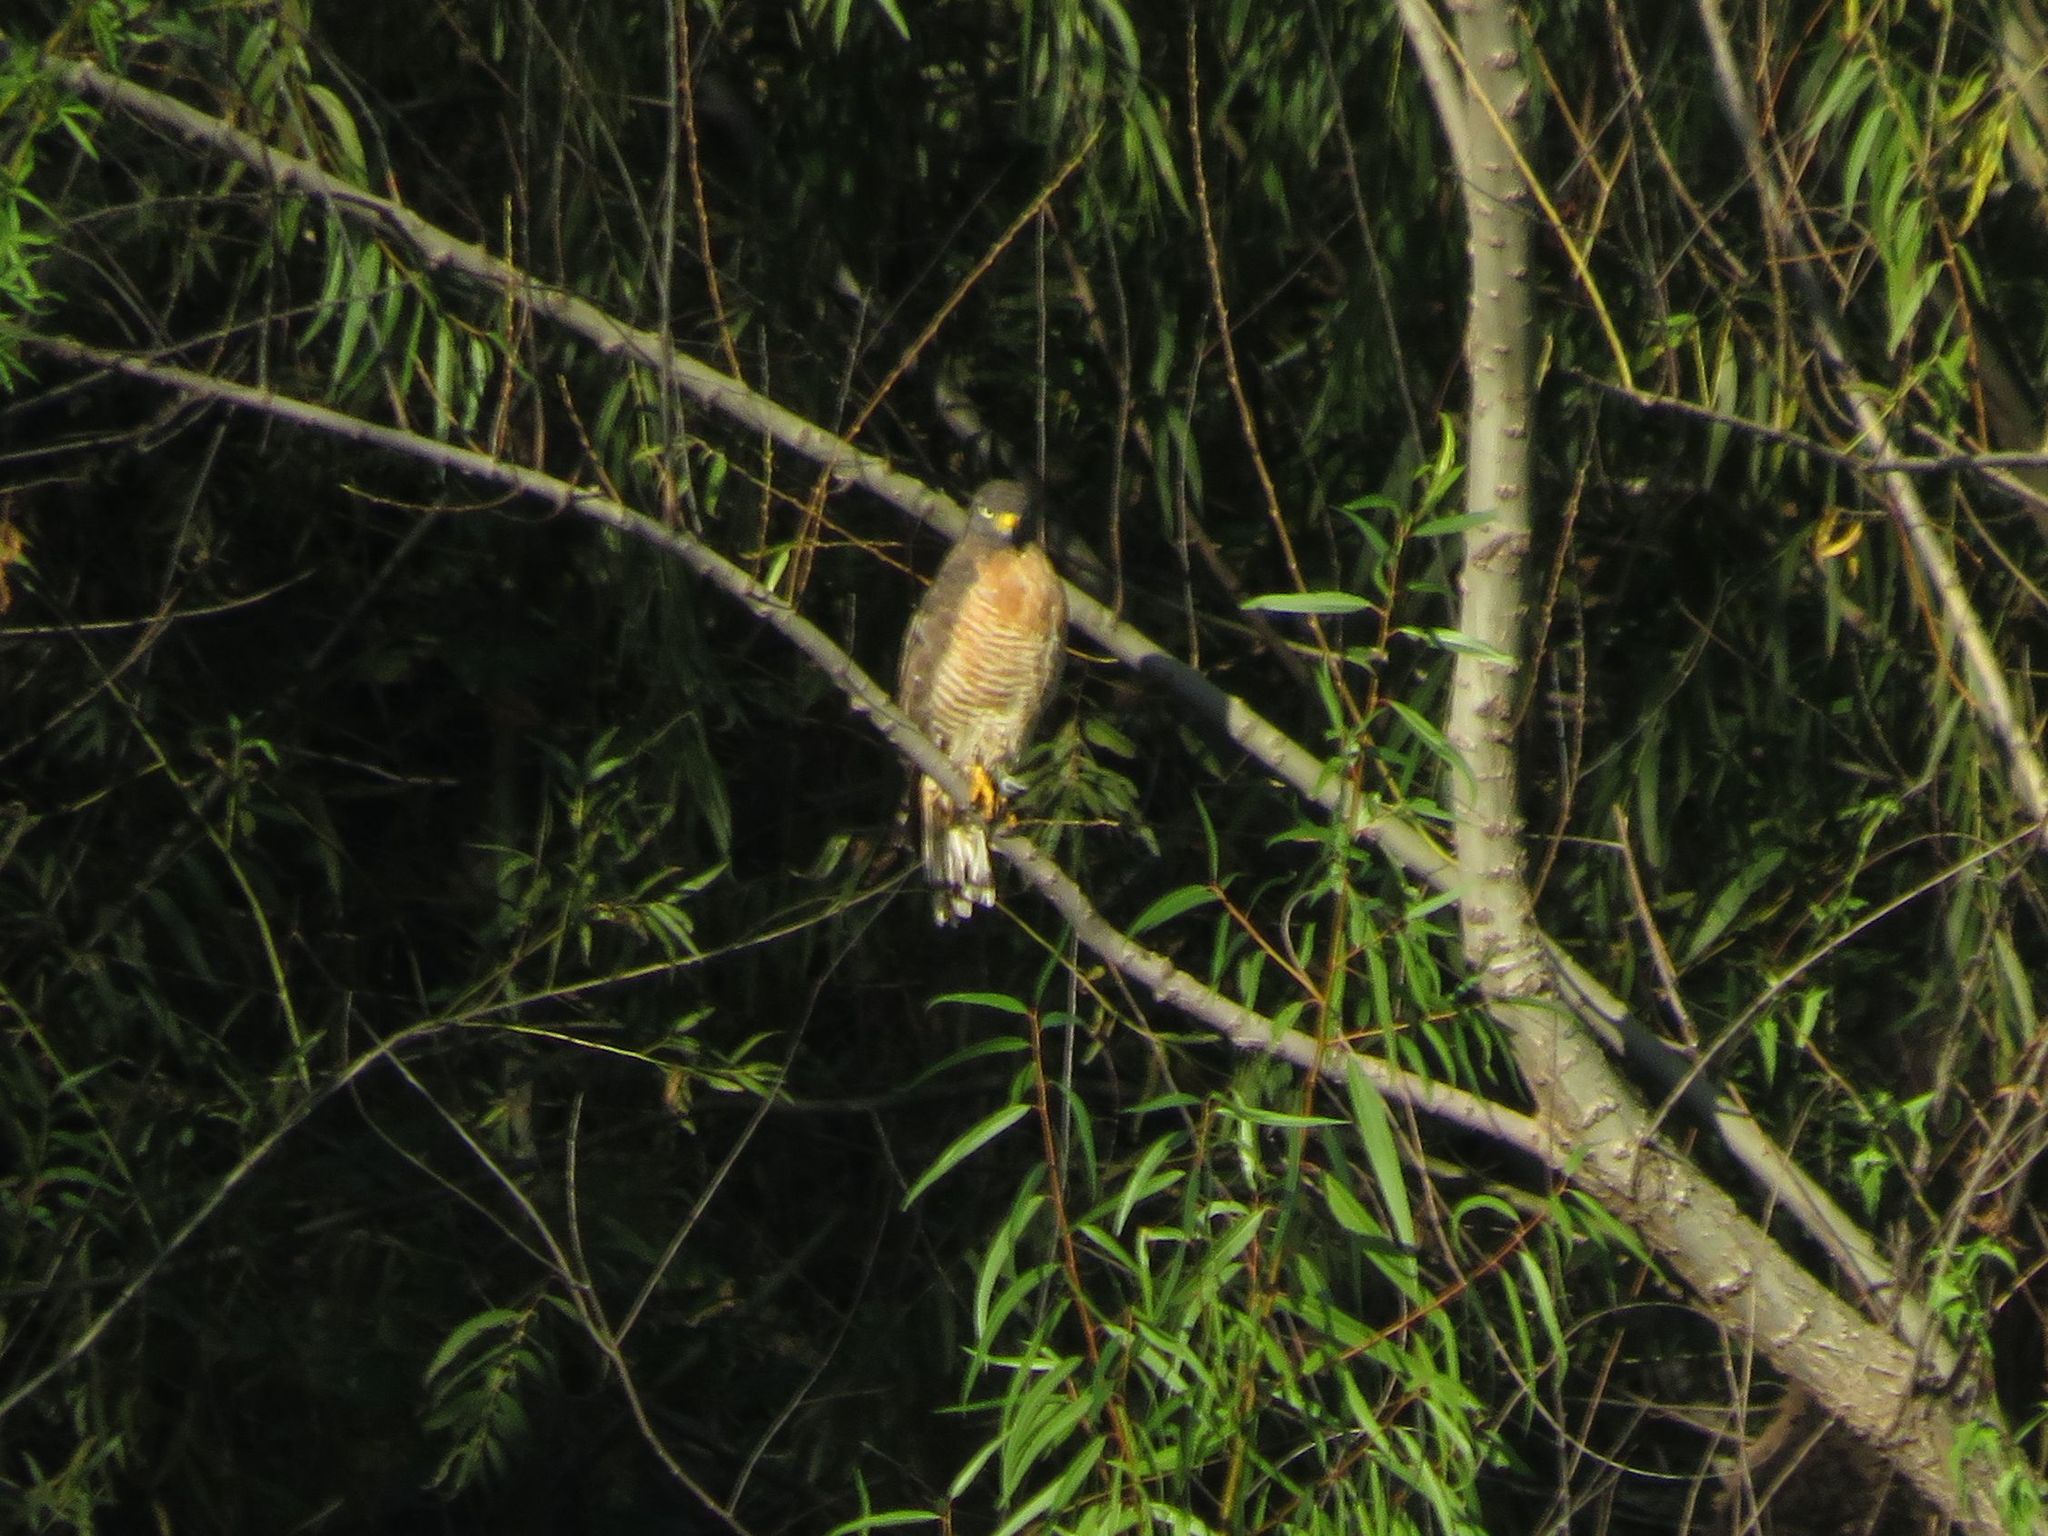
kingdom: Animalia
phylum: Chordata
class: Aves
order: Accipitriformes
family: Accipitridae
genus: Rupornis
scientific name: Rupornis magnirostris
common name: Roadside hawk
